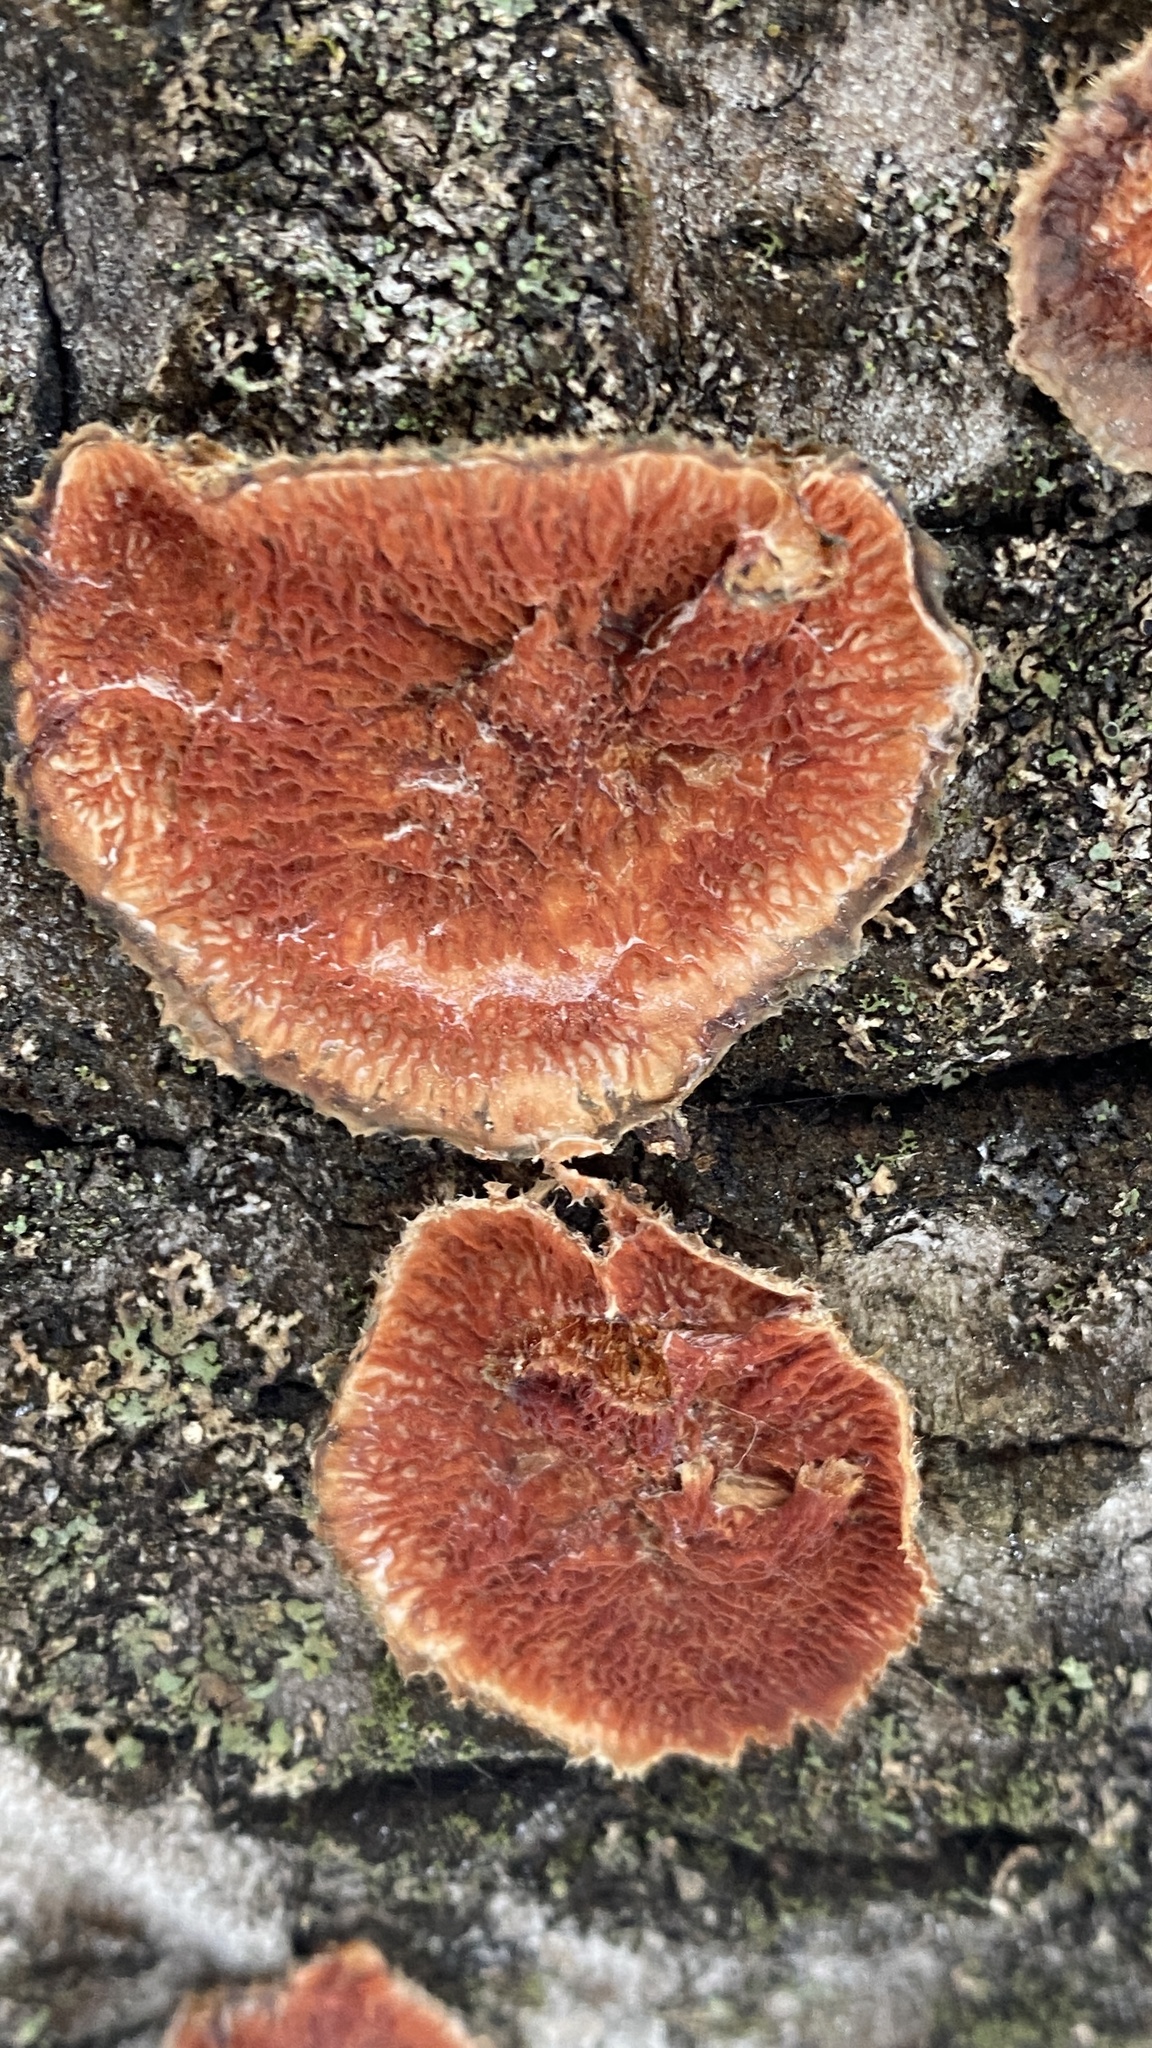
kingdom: Fungi
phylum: Basidiomycota
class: Agaricomycetes
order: Polyporales
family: Meruliaceae
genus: Phlebia
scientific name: Phlebia tremellosa
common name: Jelly rot
